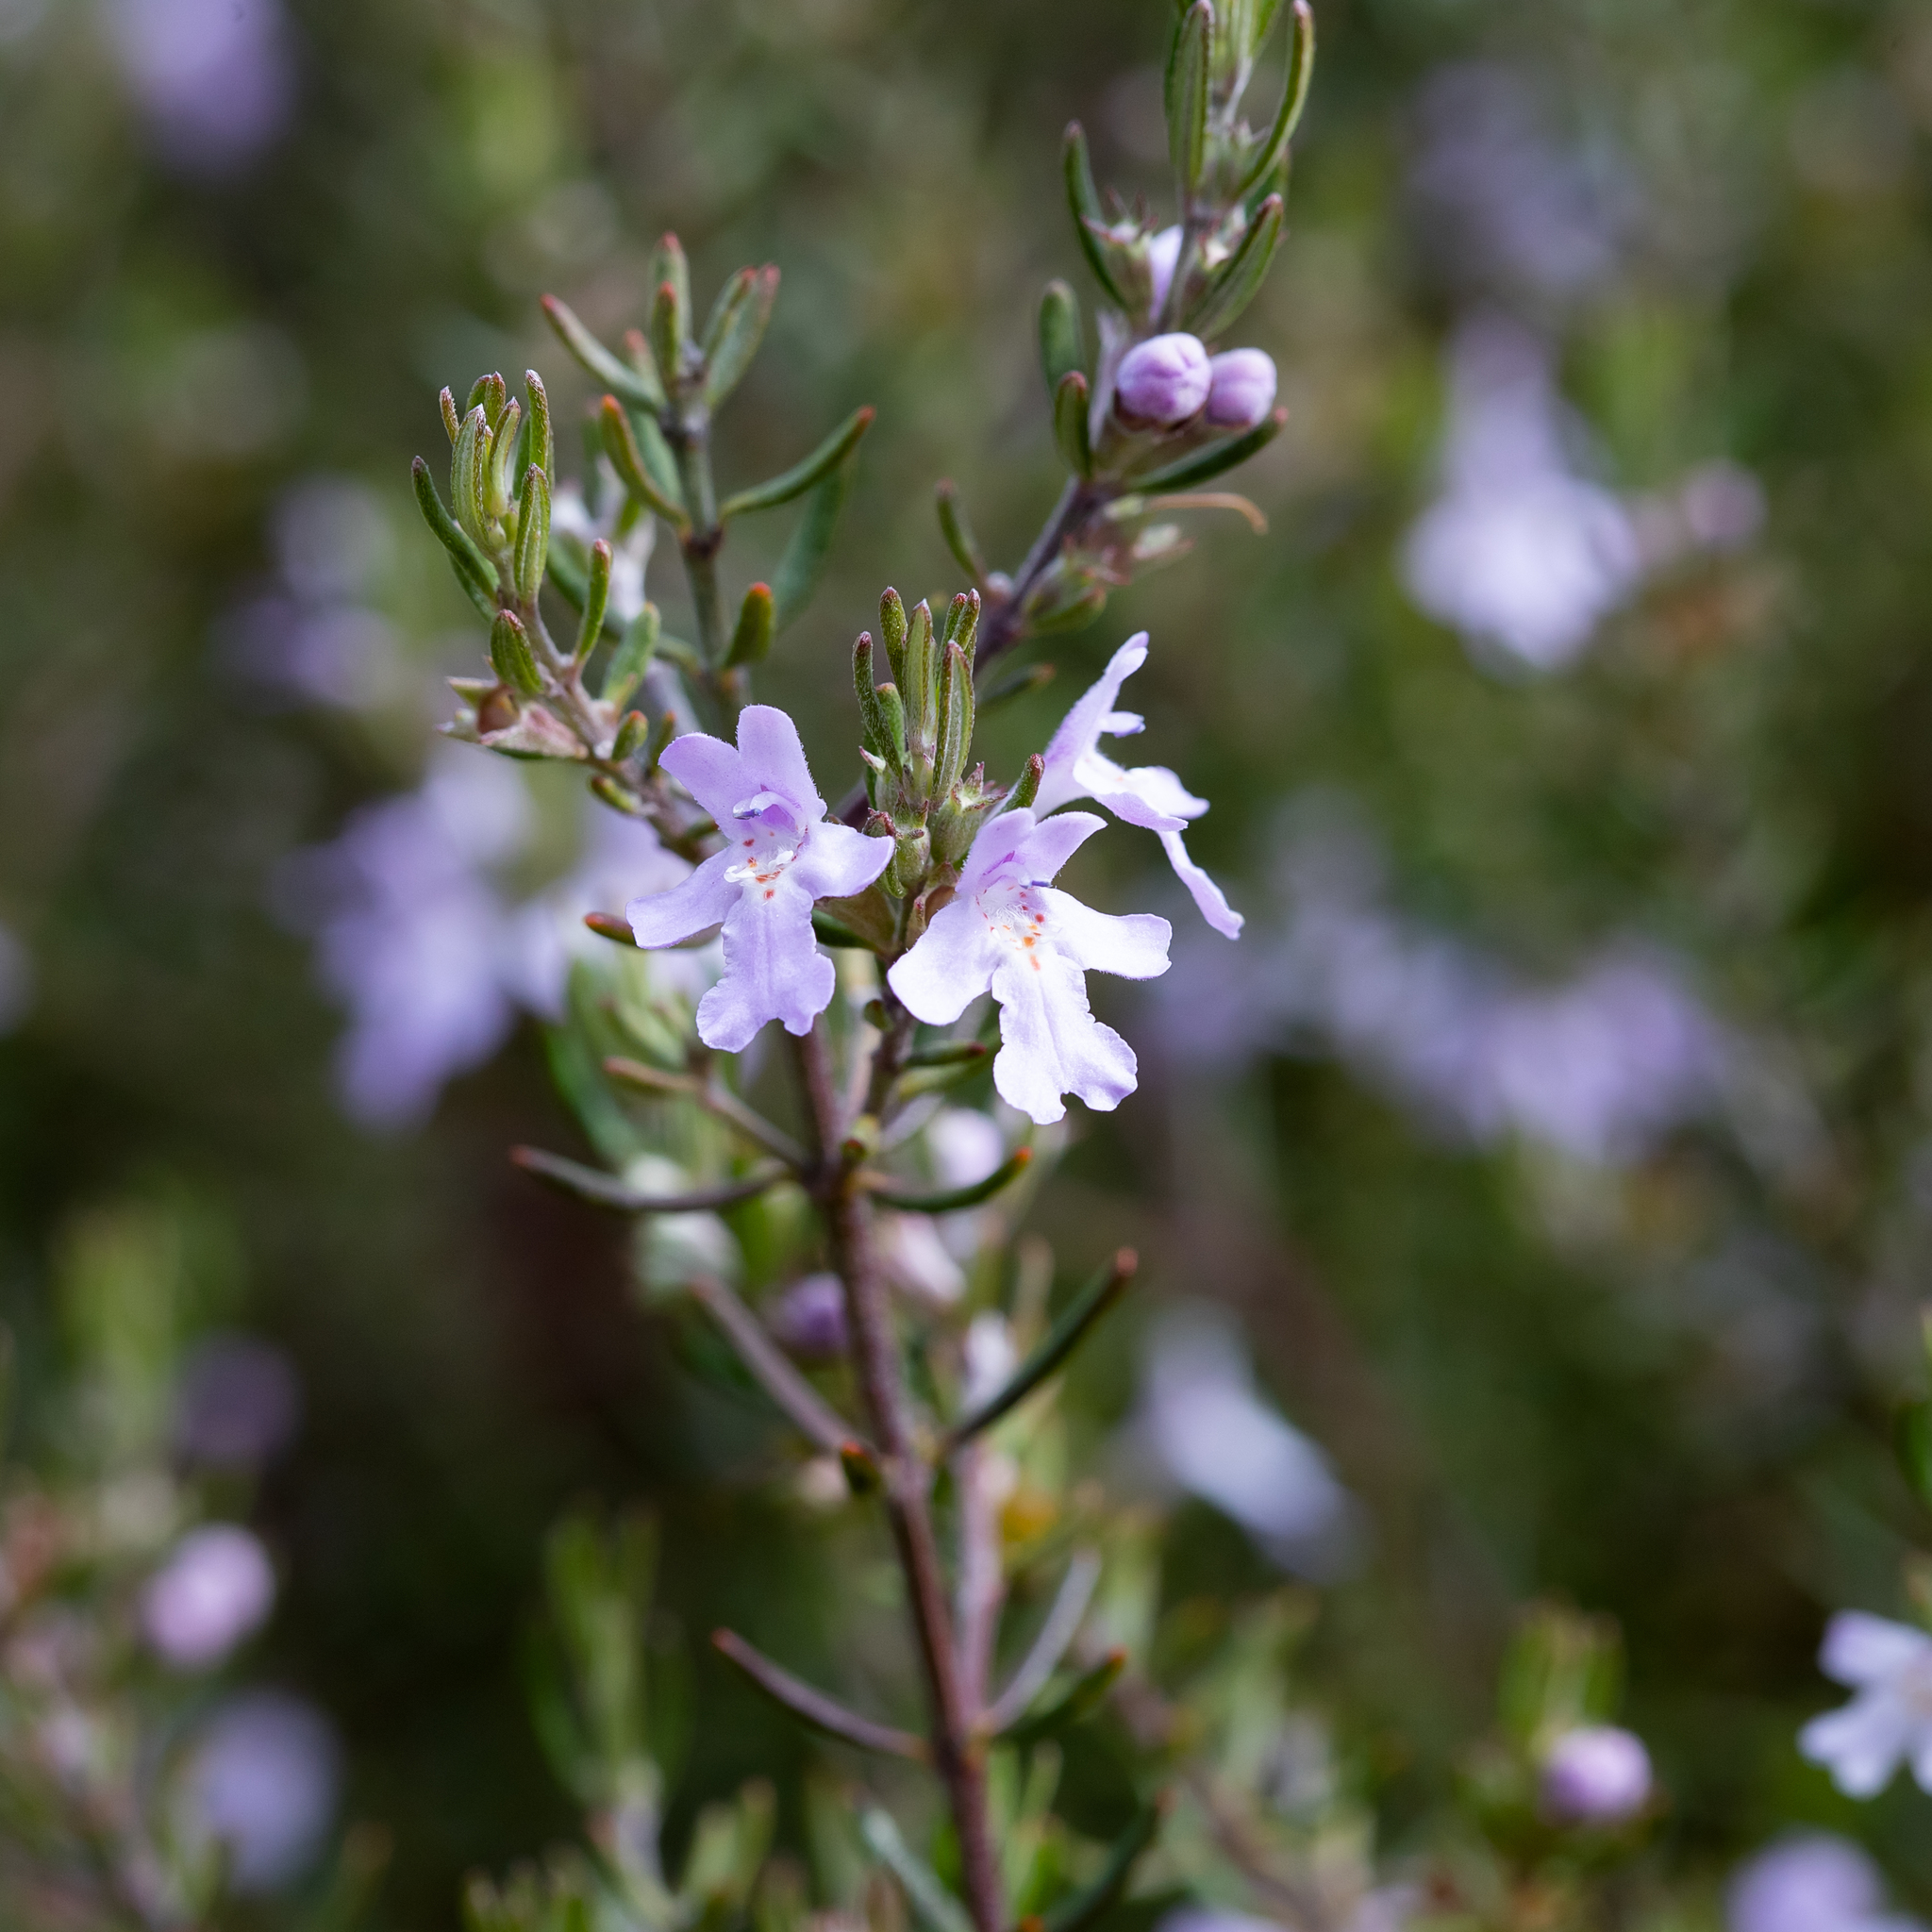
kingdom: Plantae
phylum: Tracheophyta
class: Magnoliopsida
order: Lamiales
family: Lamiaceae
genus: Westringia
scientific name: Westringia eremicola
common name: Slender western-rosemary
